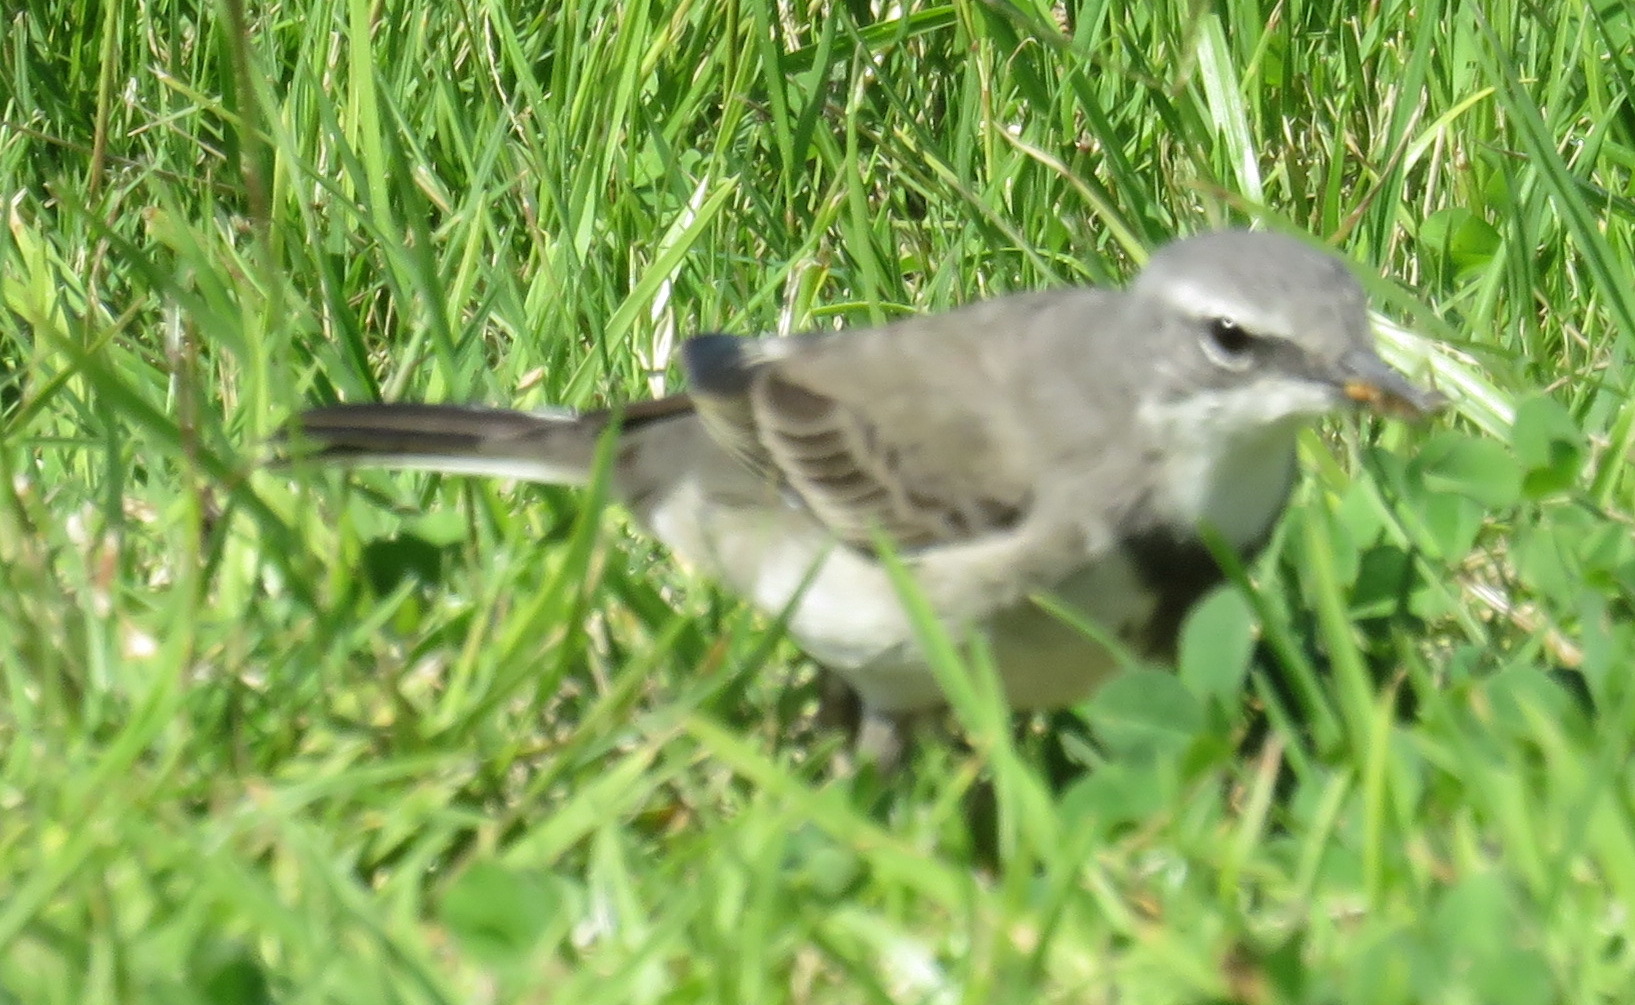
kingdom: Animalia
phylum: Chordata
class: Aves
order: Passeriformes
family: Motacillidae
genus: Motacilla
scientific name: Motacilla capensis
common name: Cape wagtail
